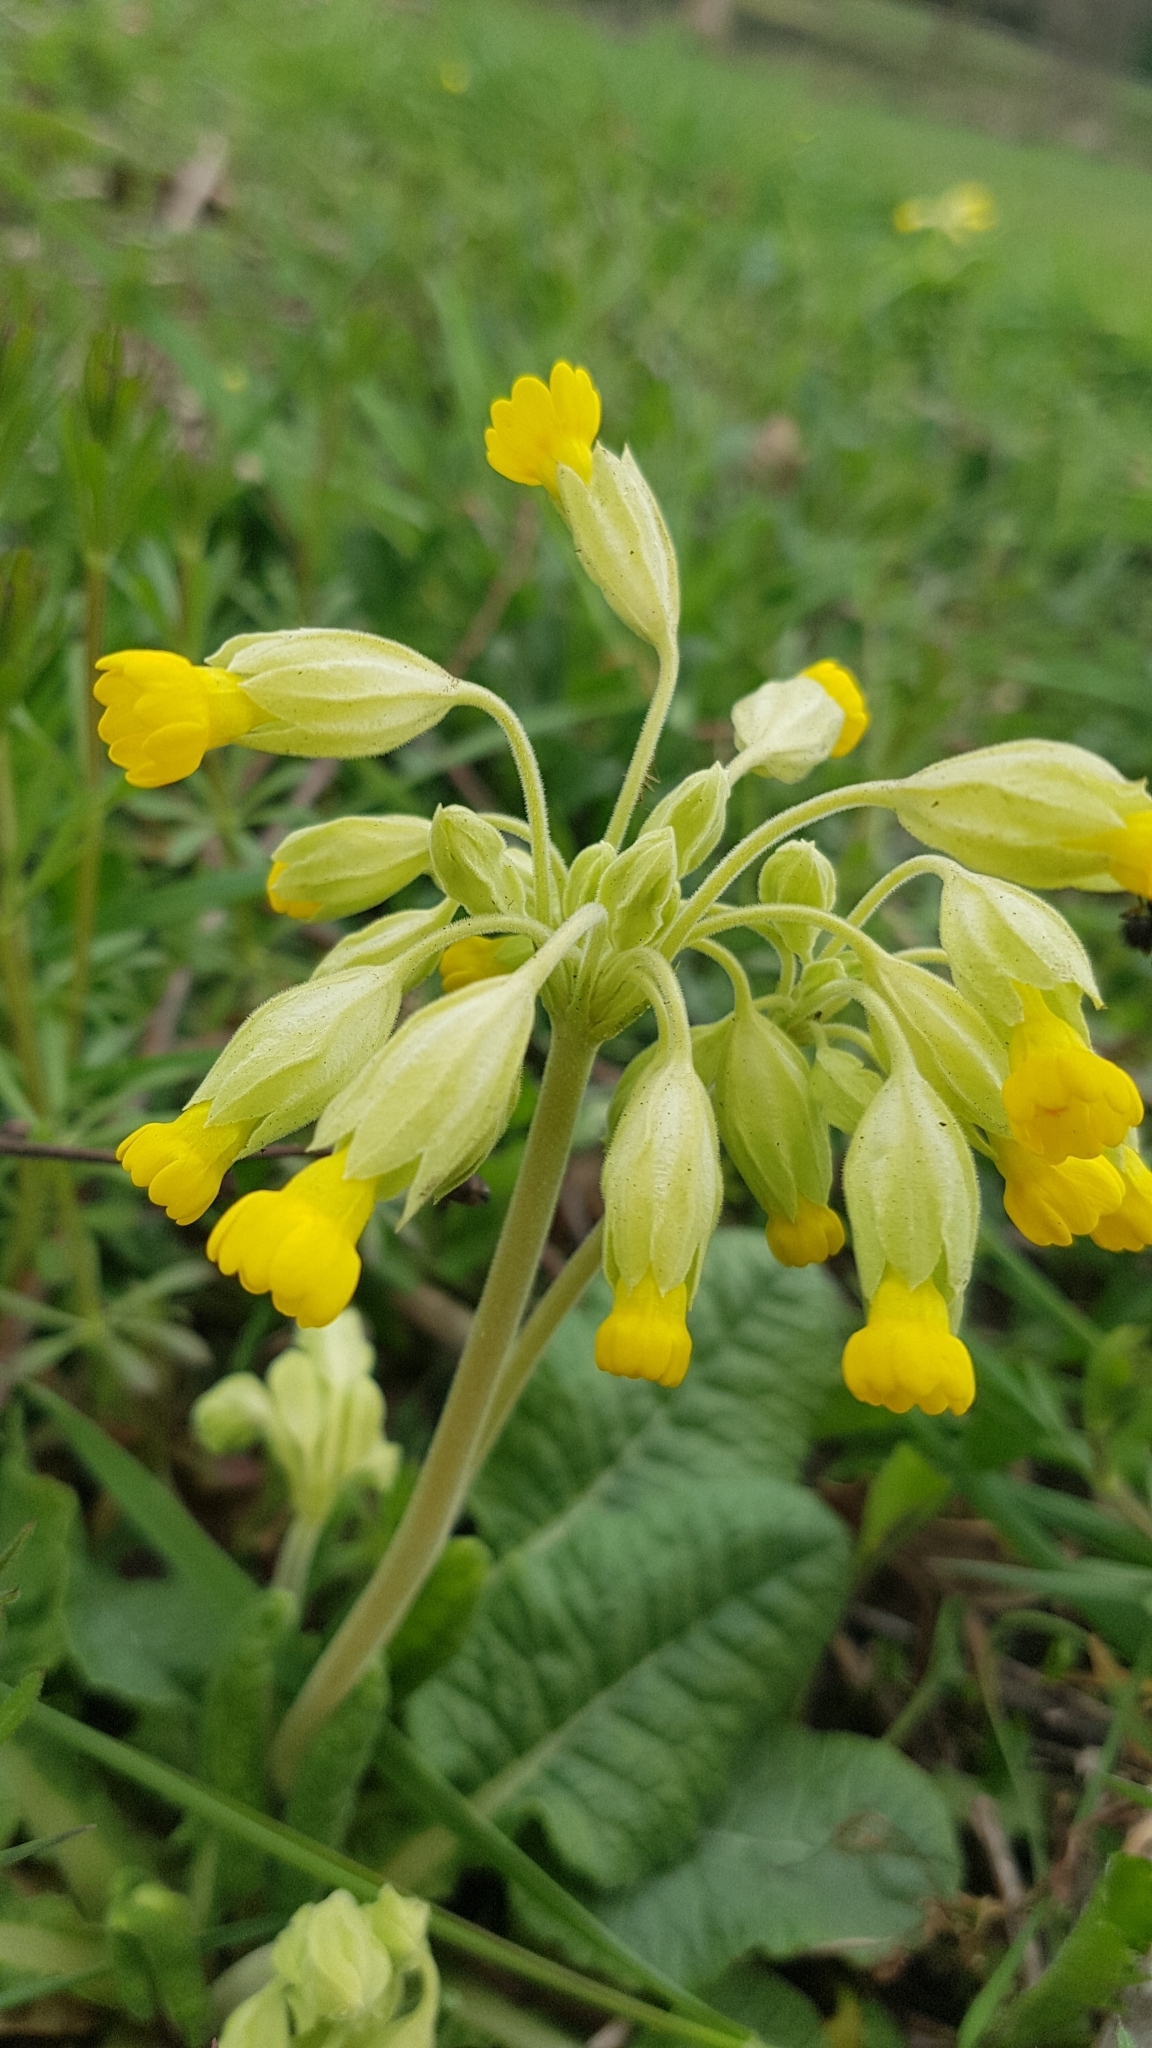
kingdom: Plantae
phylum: Tracheophyta
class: Magnoliopsida
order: Ericales
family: Primulaceae
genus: Primula
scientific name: Primula veris
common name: Cowslip
